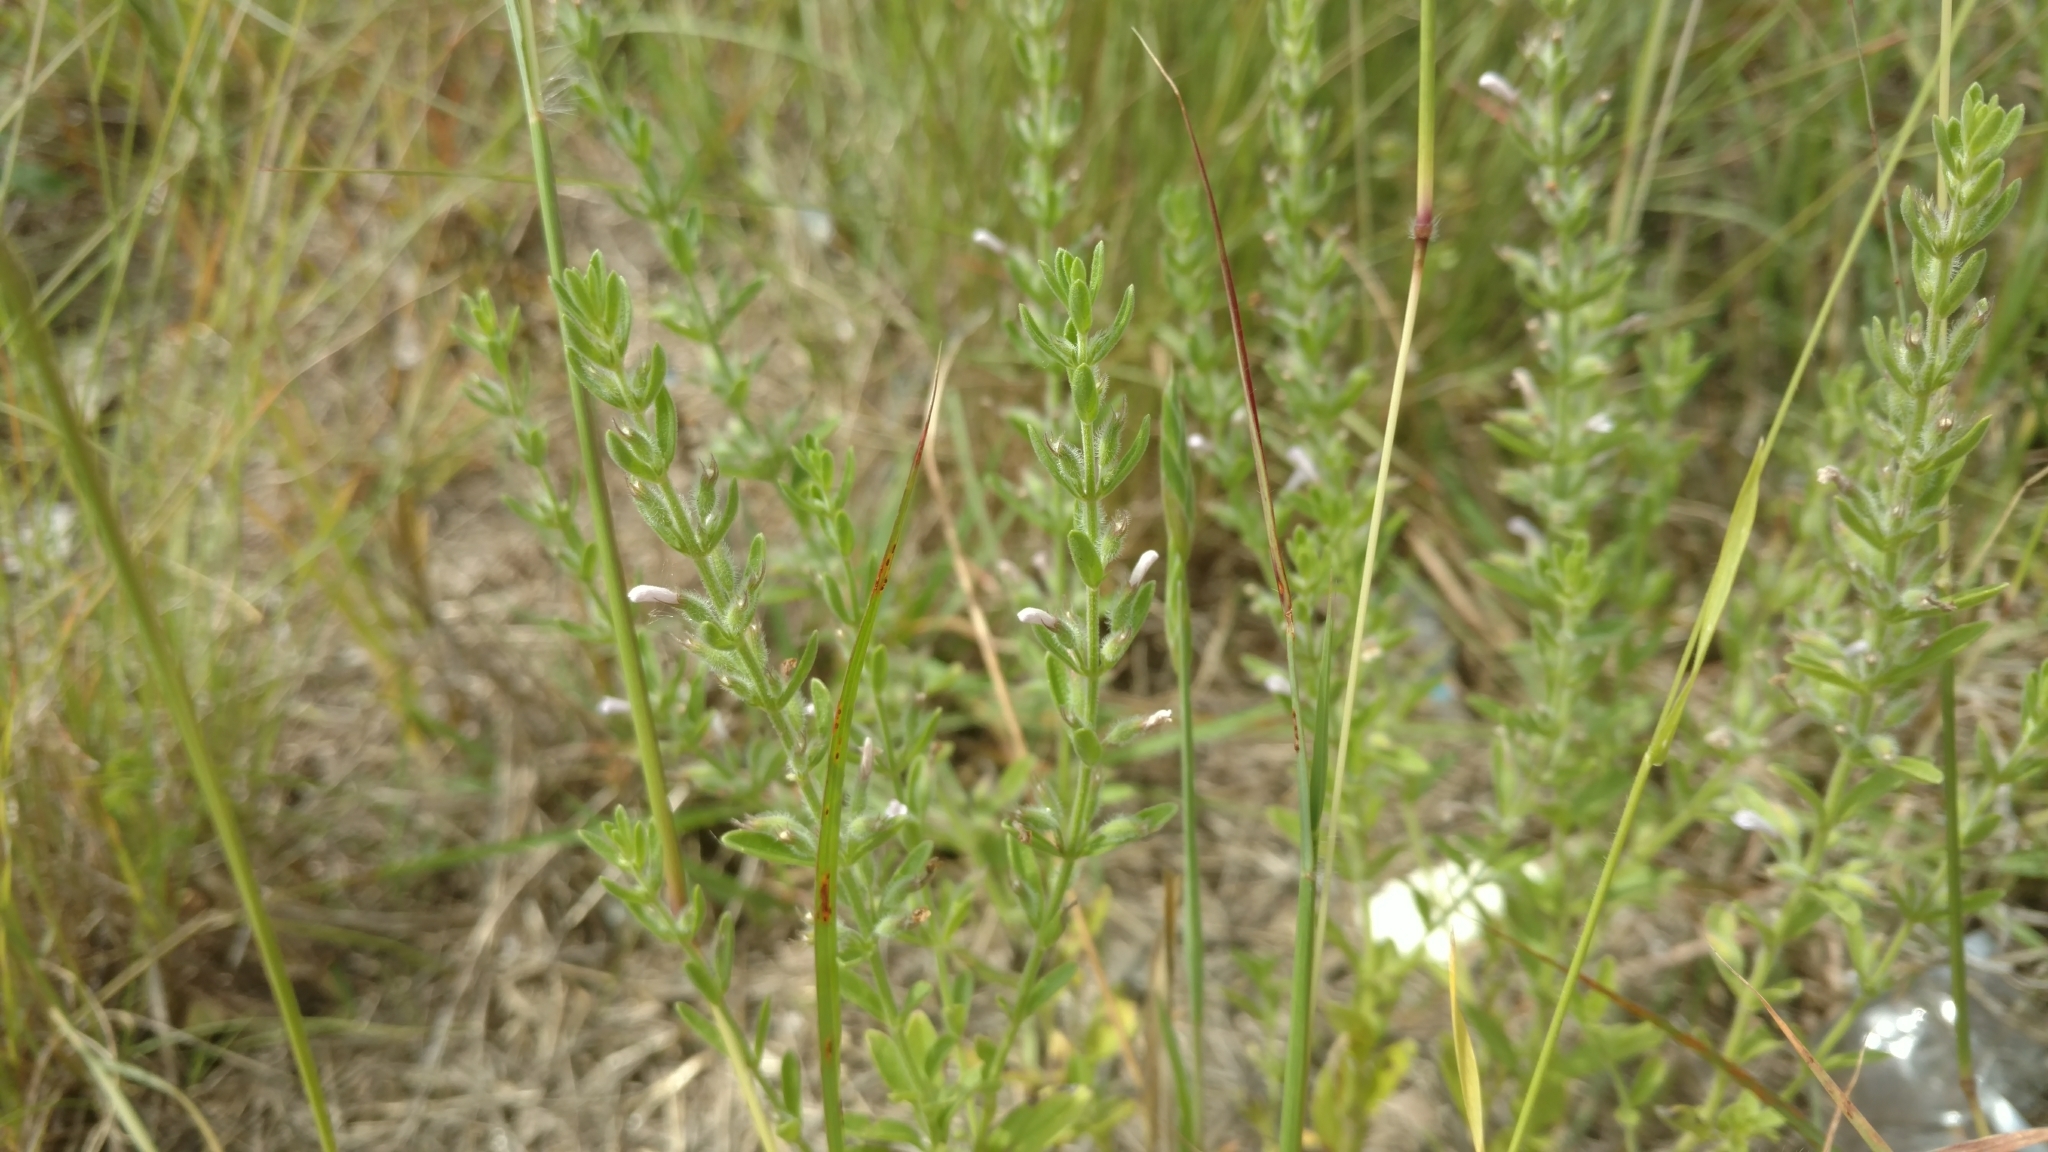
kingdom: Plantae
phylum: Tracheophyta
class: Magnoliopsida
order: Lamiales
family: Lamiaceae
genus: Hedeoma
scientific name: Hedeoma reverchonii
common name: Reverchon's false penny-royal
